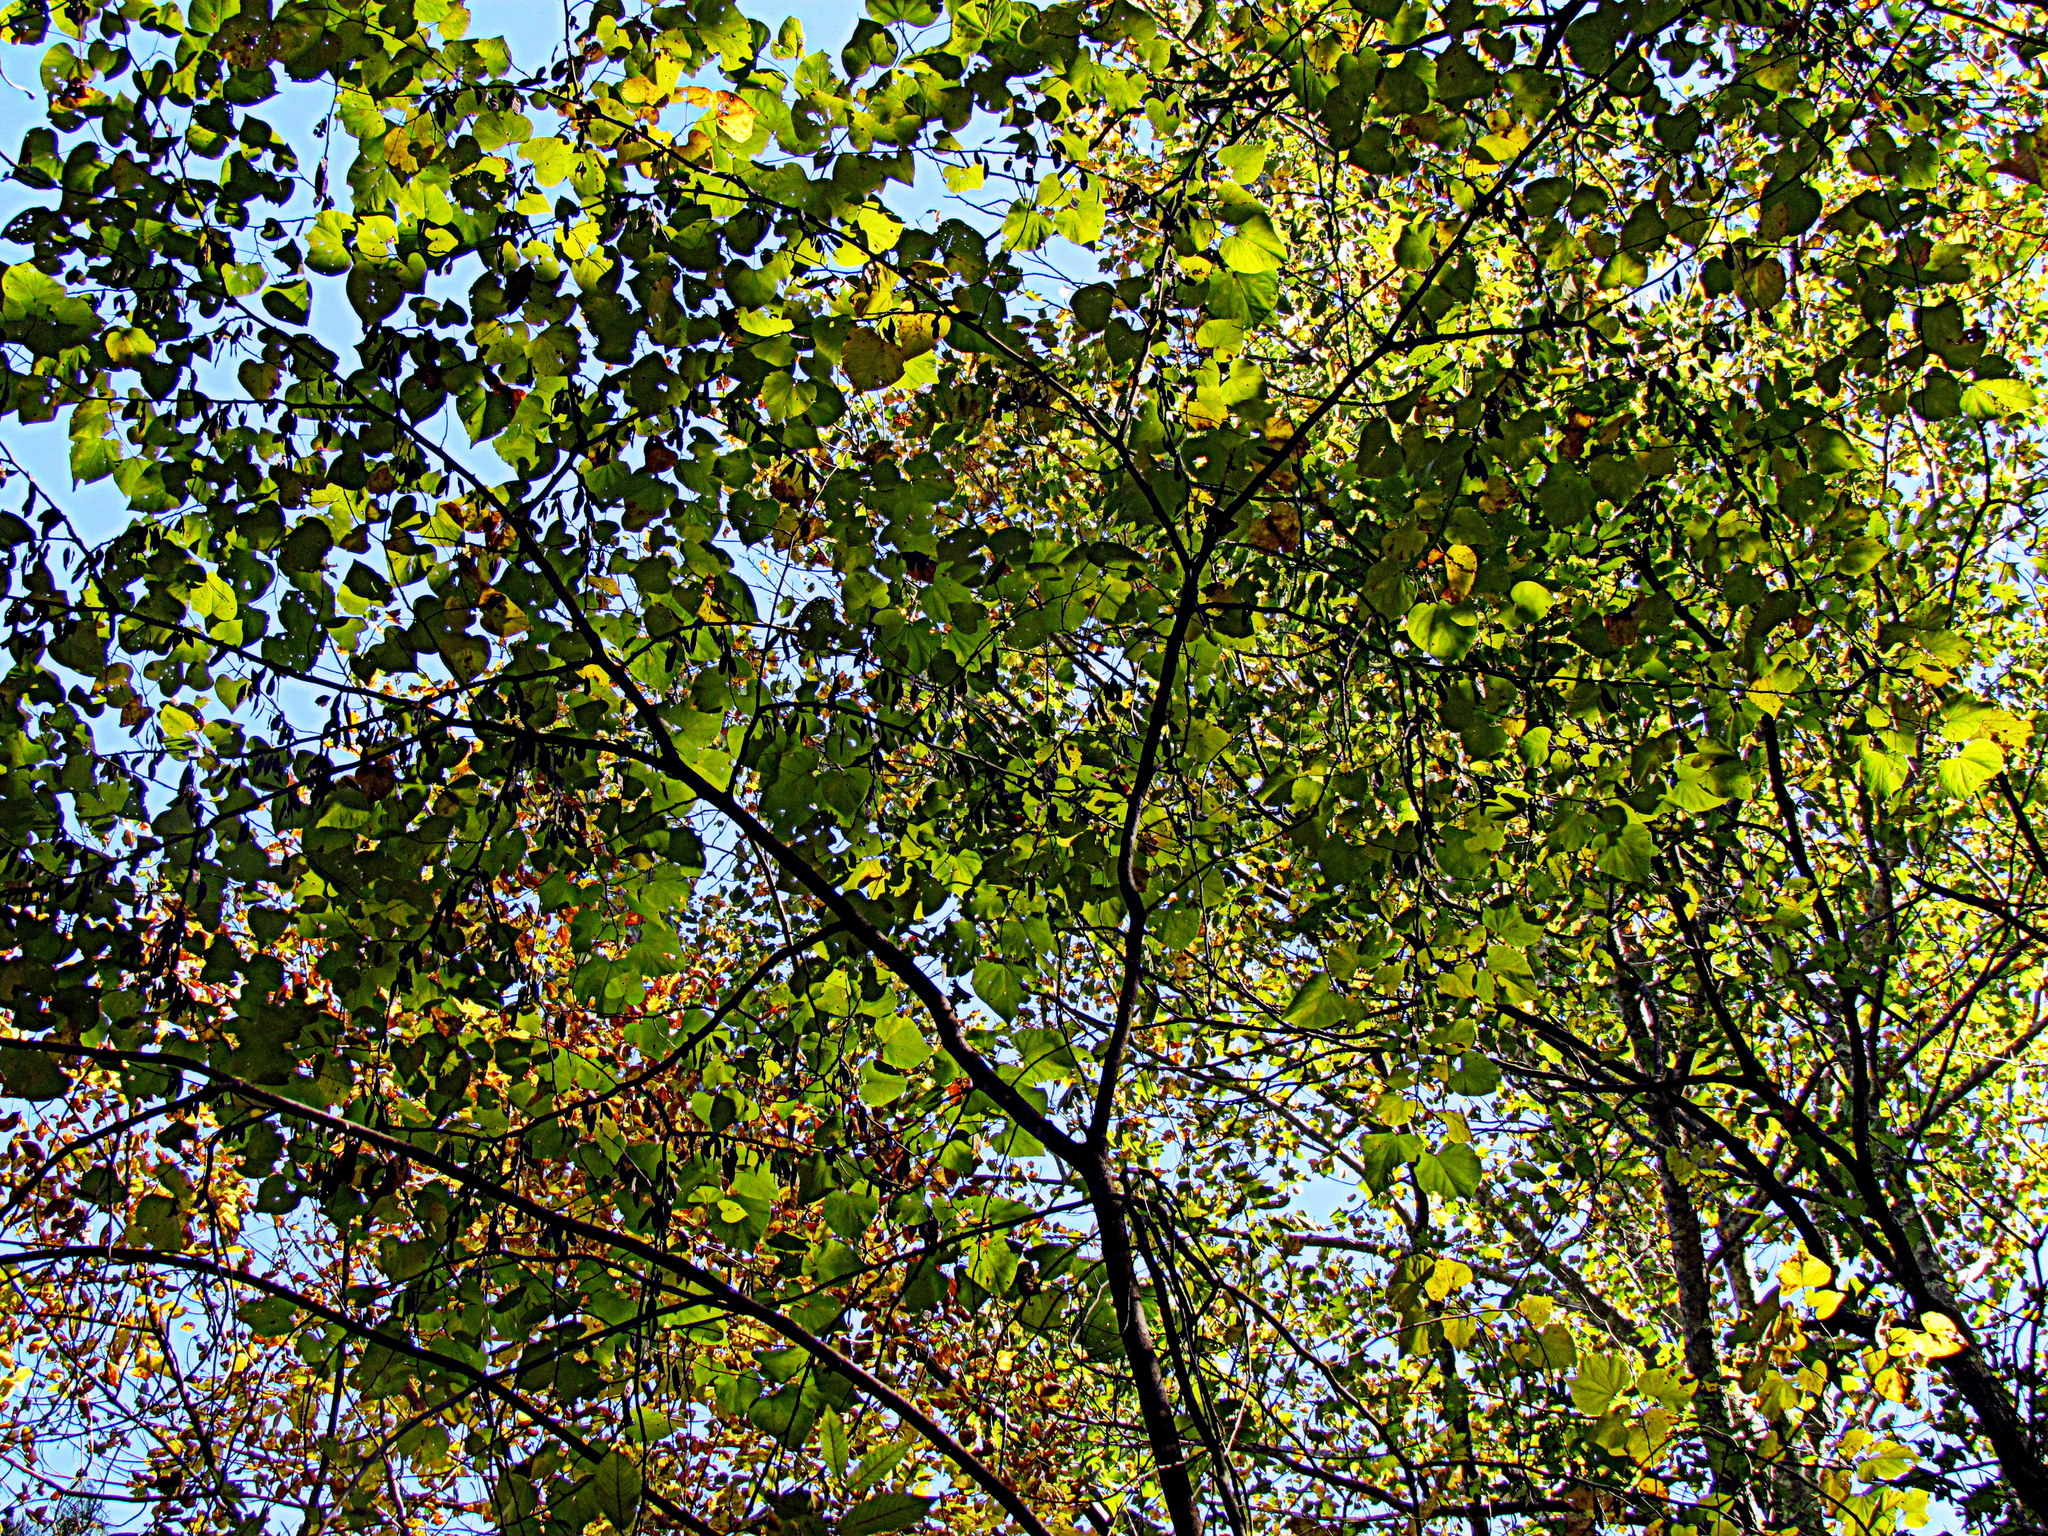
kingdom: Plantae
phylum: Tracheophyta
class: Magnoliopsida
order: Fabales
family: Fabaceae
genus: Cercis
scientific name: Cercis canadensis
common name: Eastern redbud
